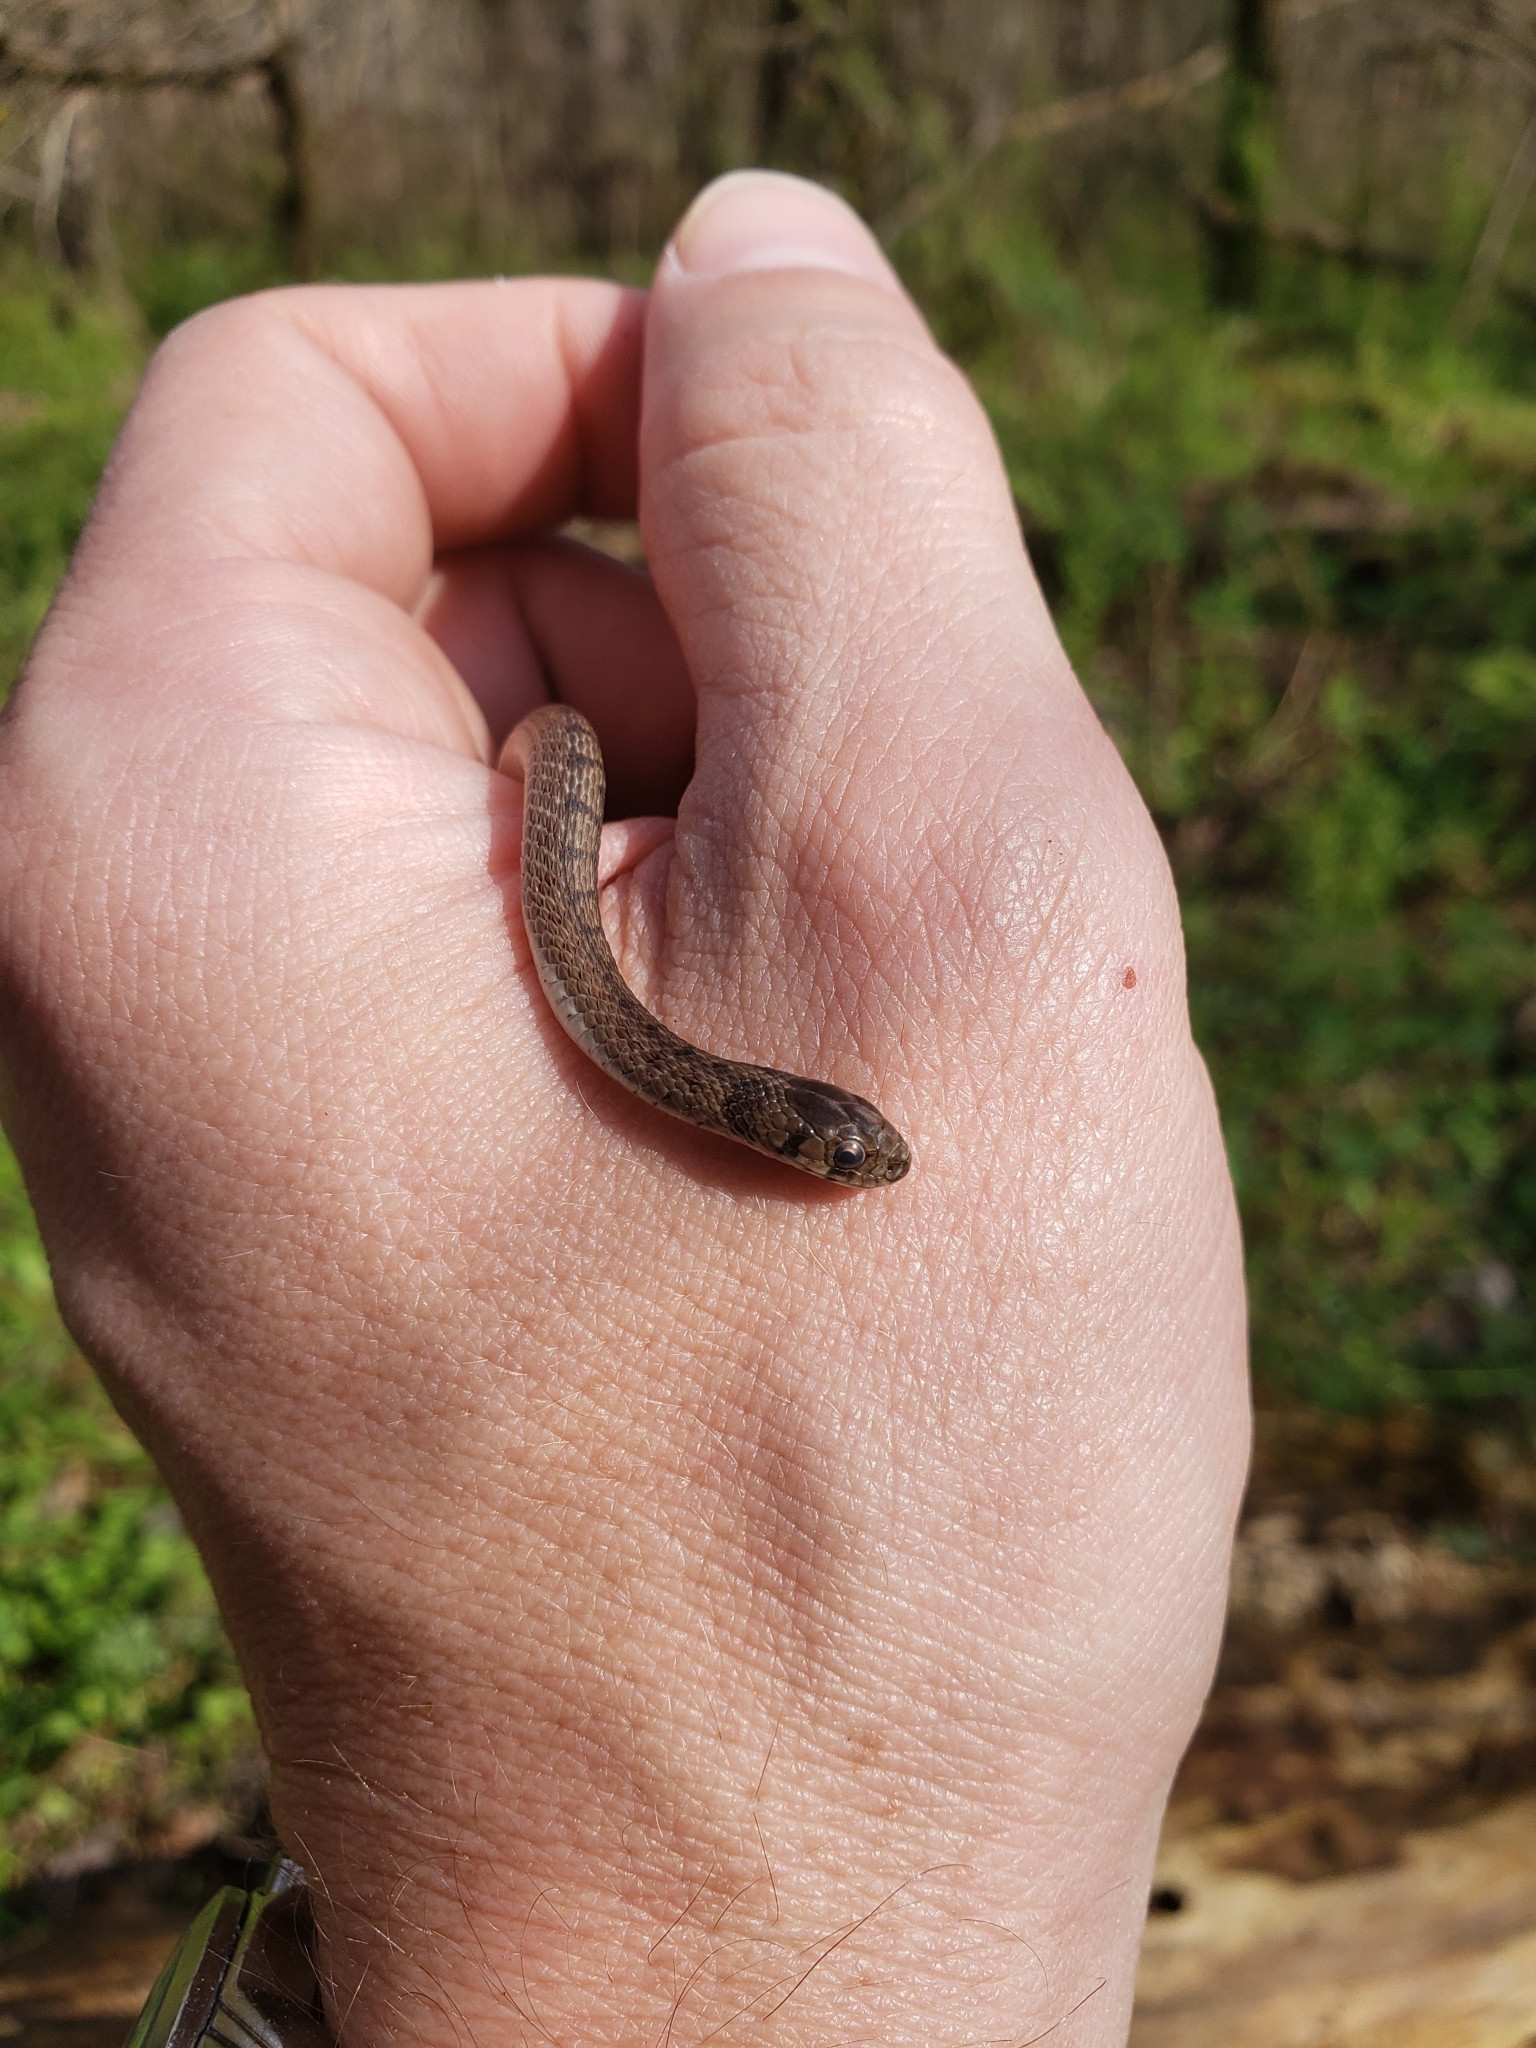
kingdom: Animalia
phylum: Chordata
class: Squamata
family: Colubridae
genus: Storeria
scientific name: Storeria dekayi
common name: (dekay’s) brown snake
